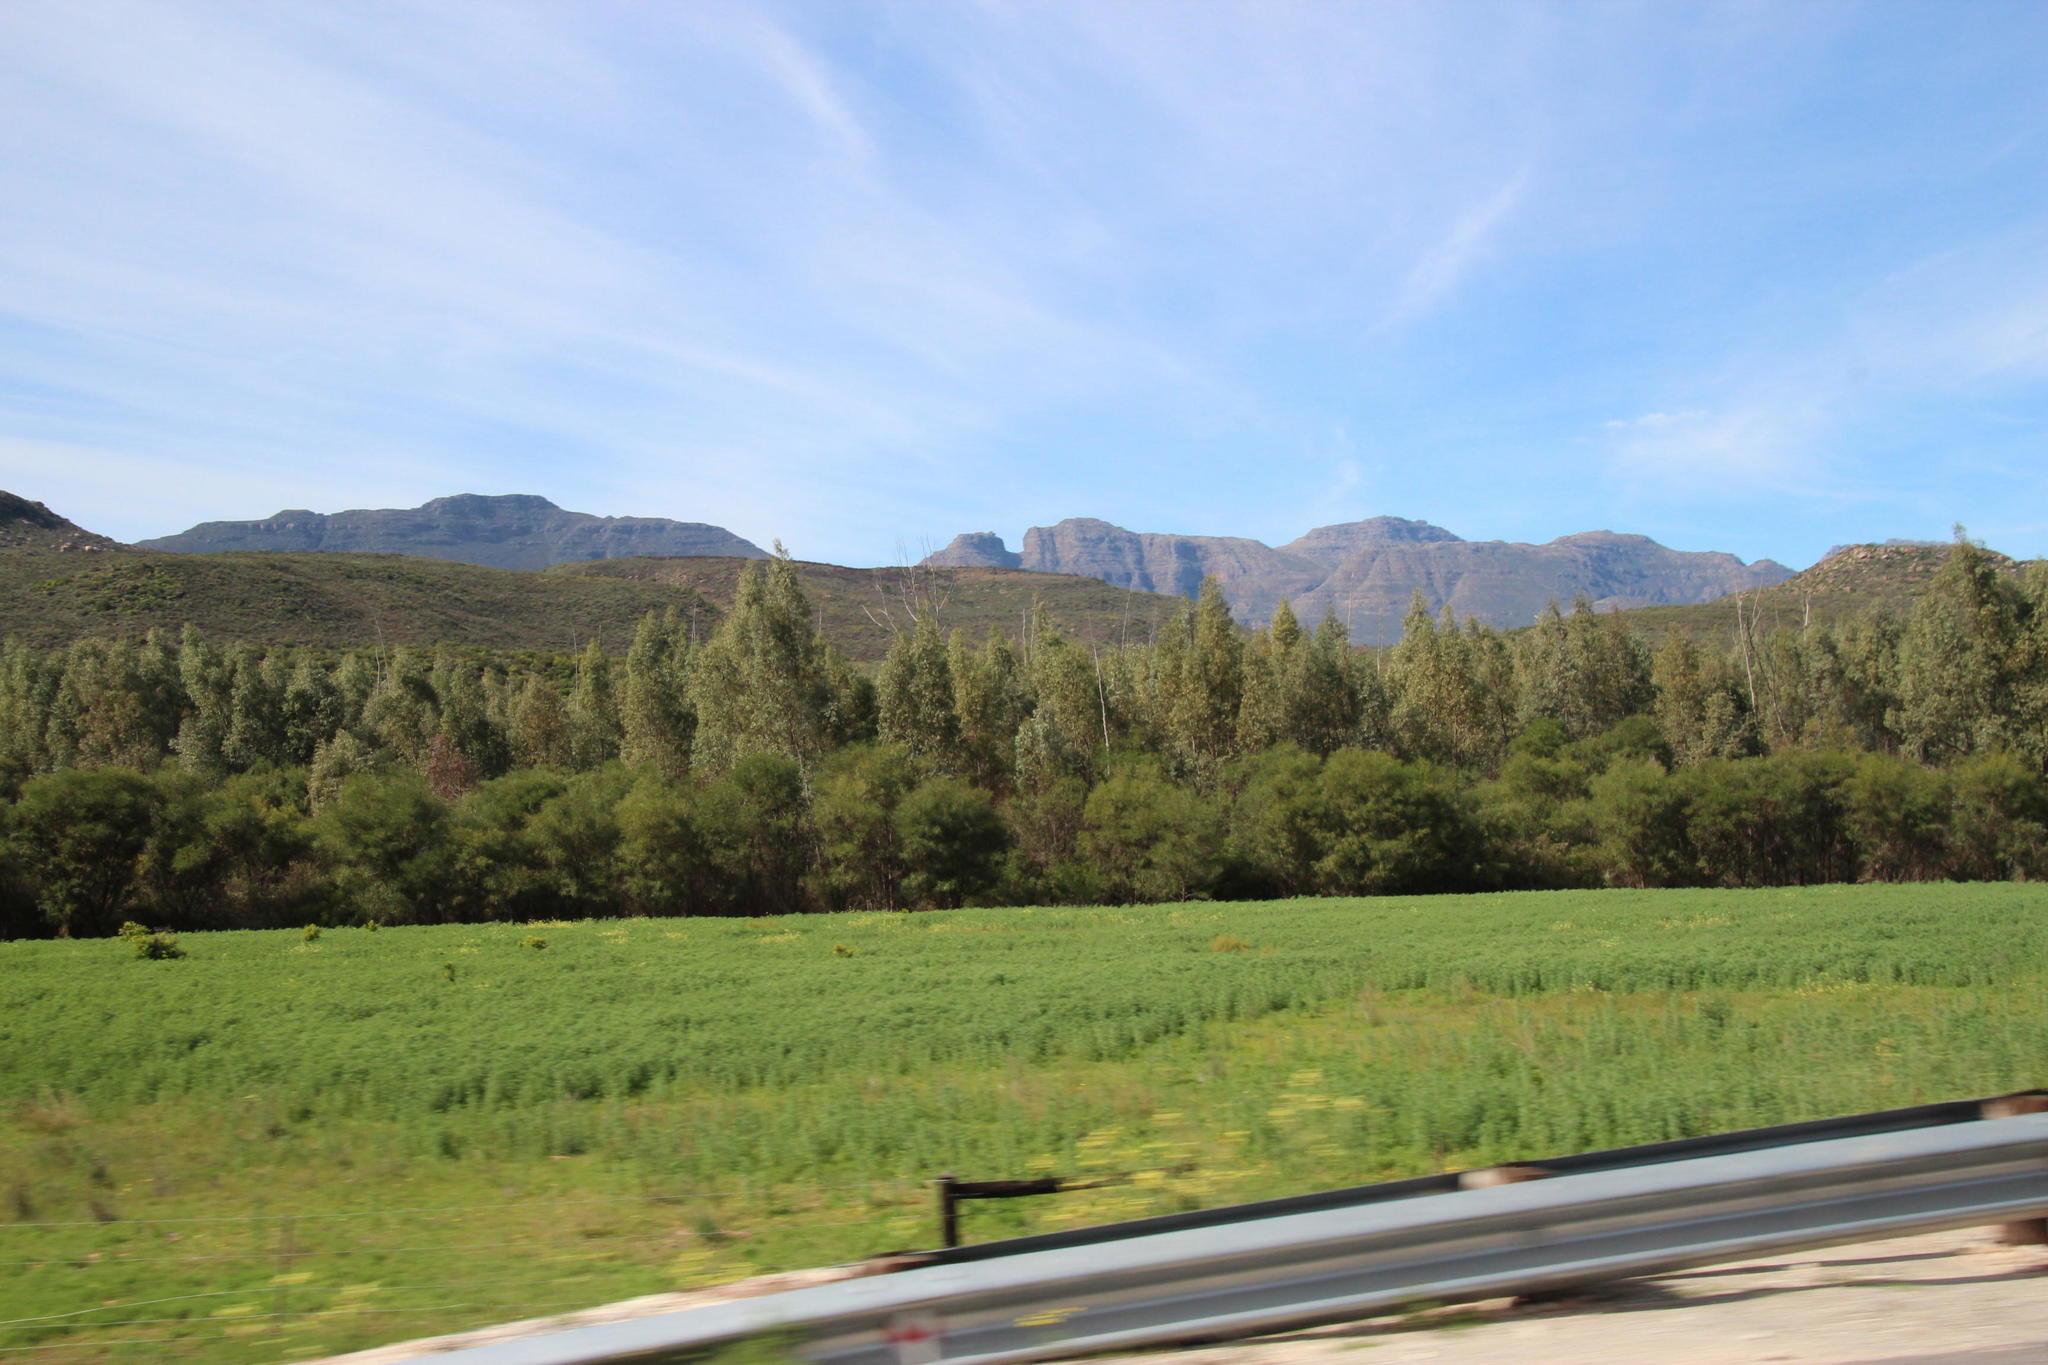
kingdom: Plantae
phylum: Tracheophyta
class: Magnoliopsida
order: Myrtales
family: Myrtaceae
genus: Eucalyptus
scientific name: Eucalyptus camaldulensis
